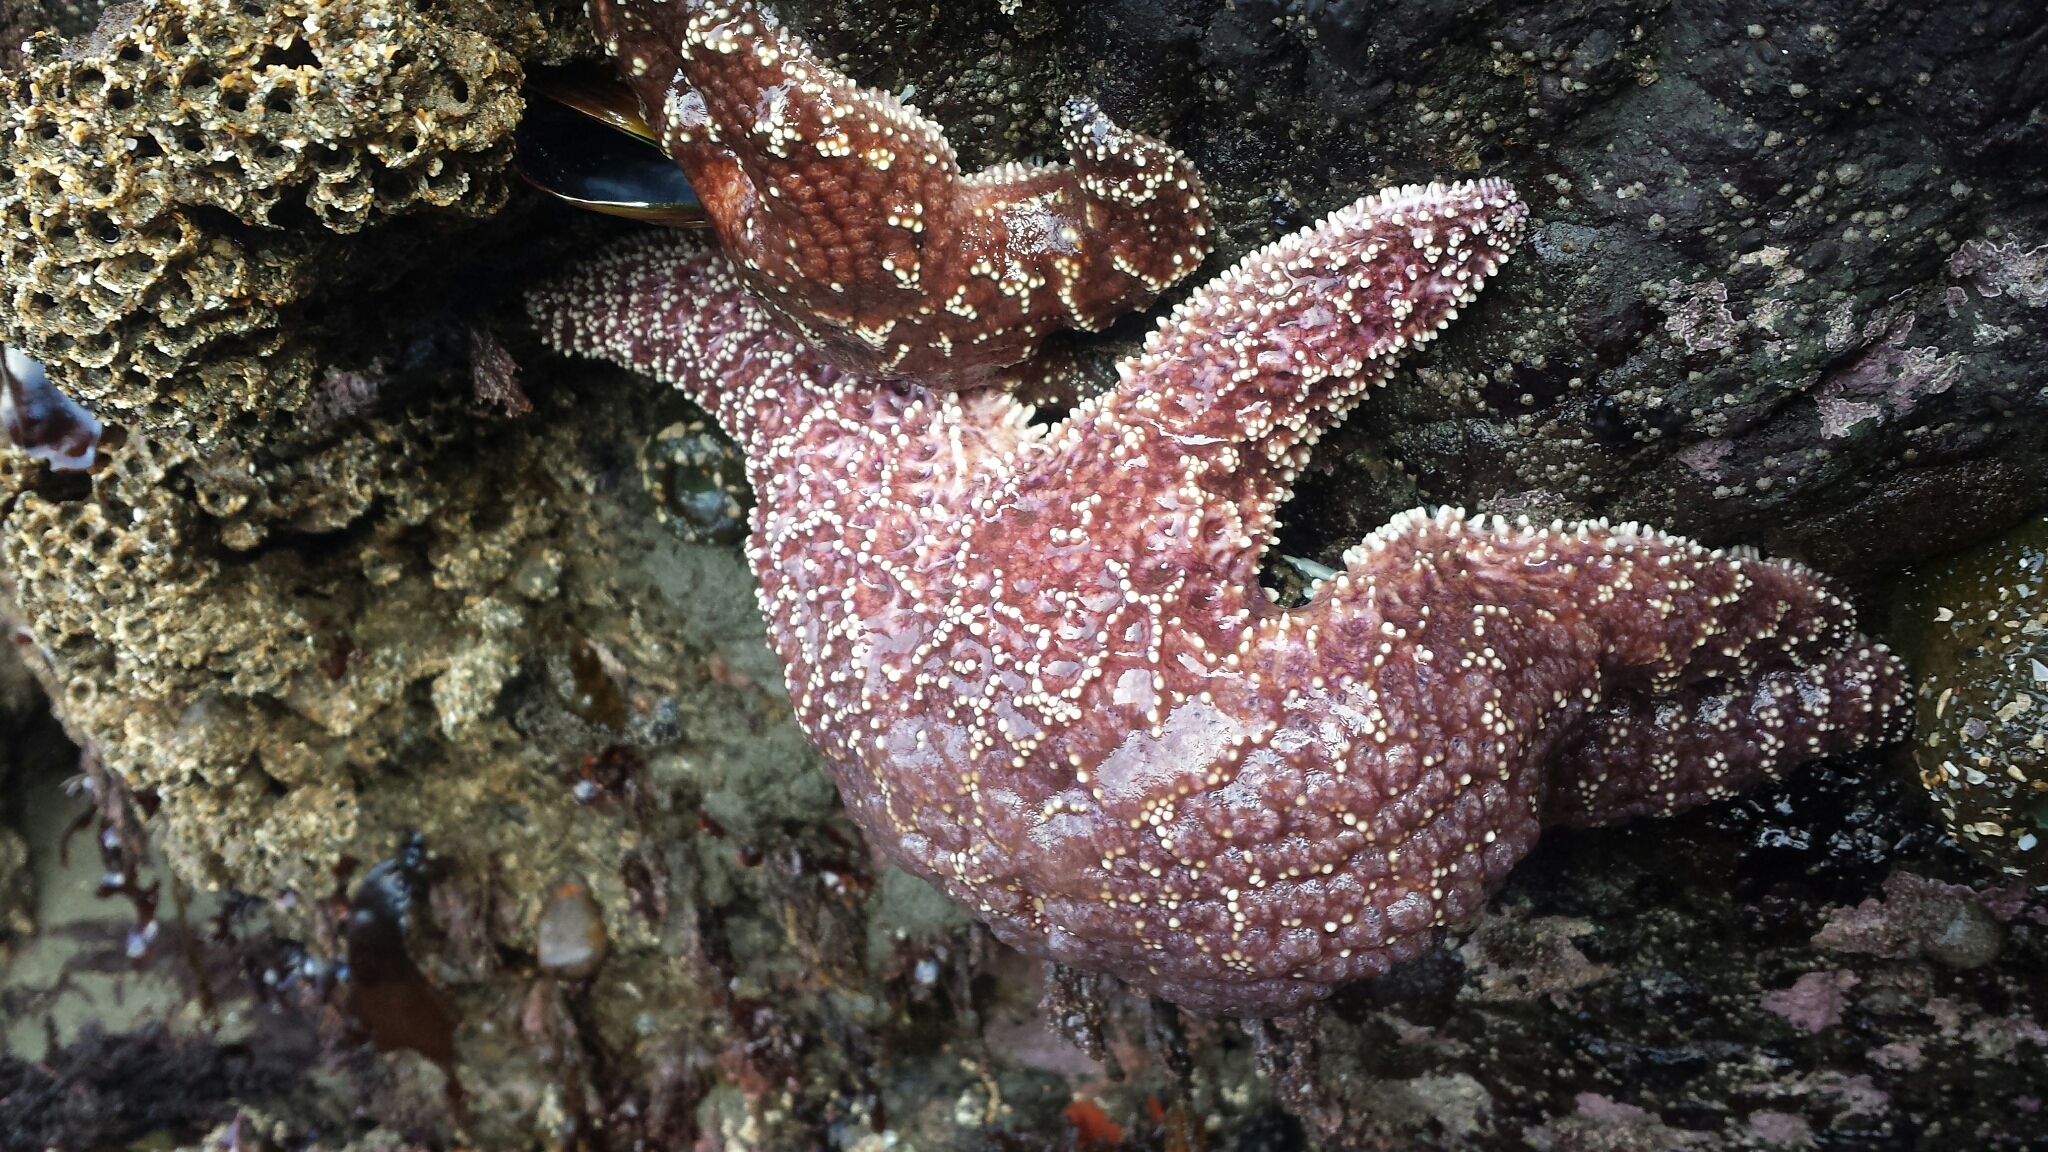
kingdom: Animalia
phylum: Echinodermata
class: Asteroidea
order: Forcipulatida
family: Asteriidae
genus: Pisaster
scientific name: Pisaster ochraceus
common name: Ochre stars
